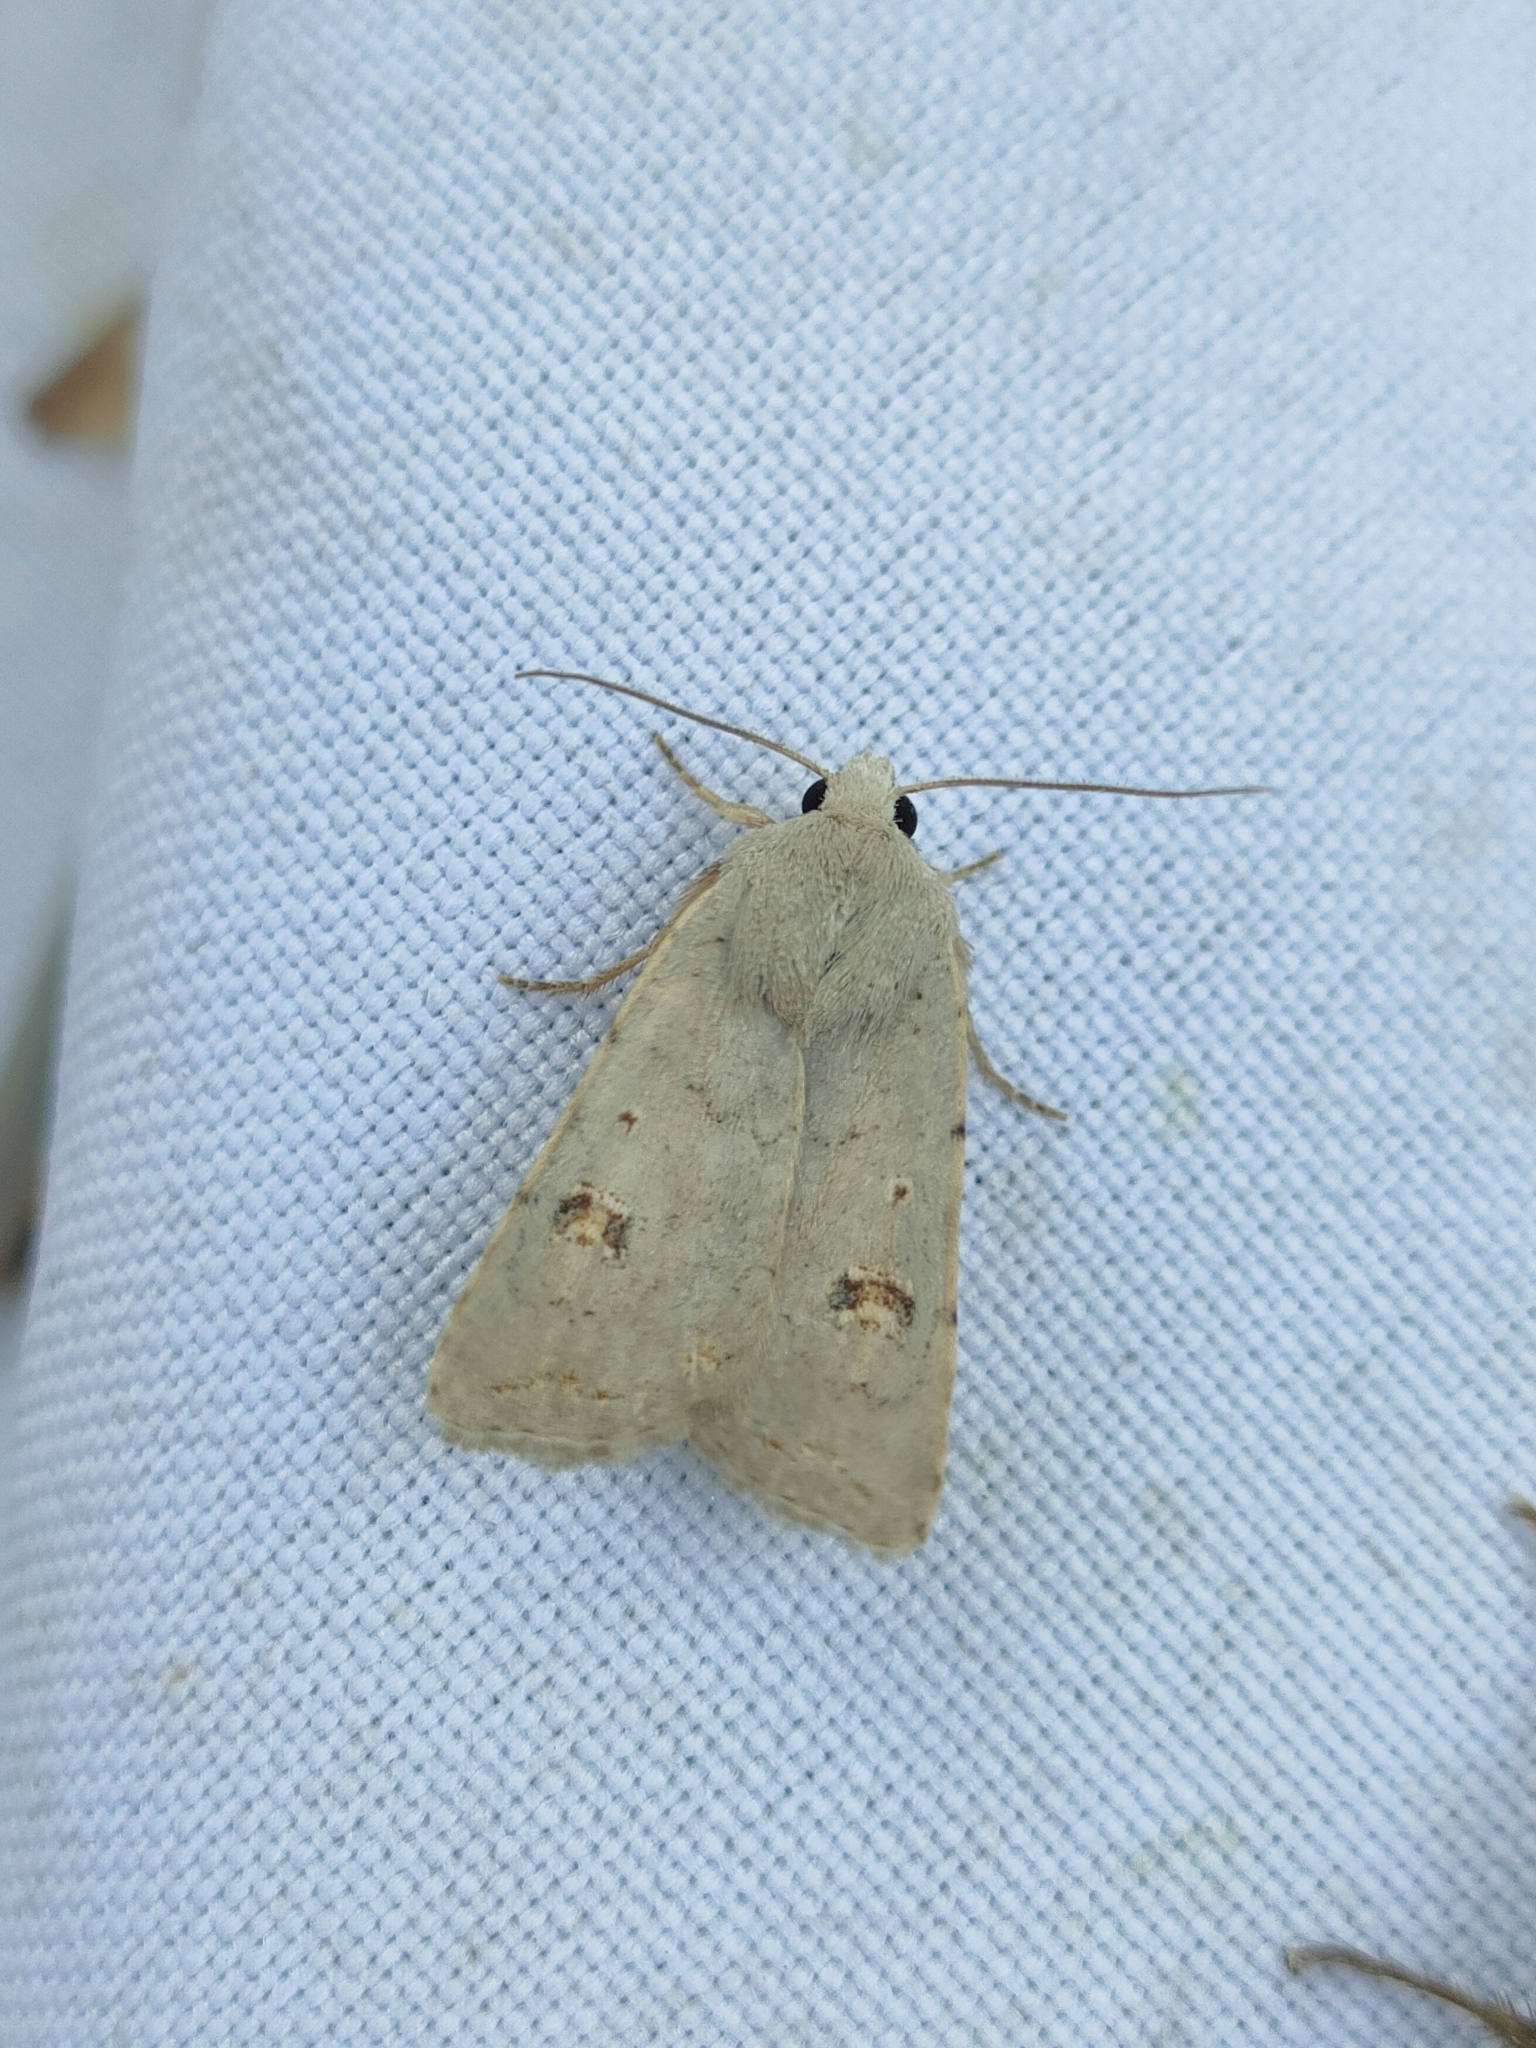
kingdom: Animalia
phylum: Arthropoda
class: Insecta
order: Lepidoptera
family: Noctuidae
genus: Caradrina
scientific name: Caradrina proxima
